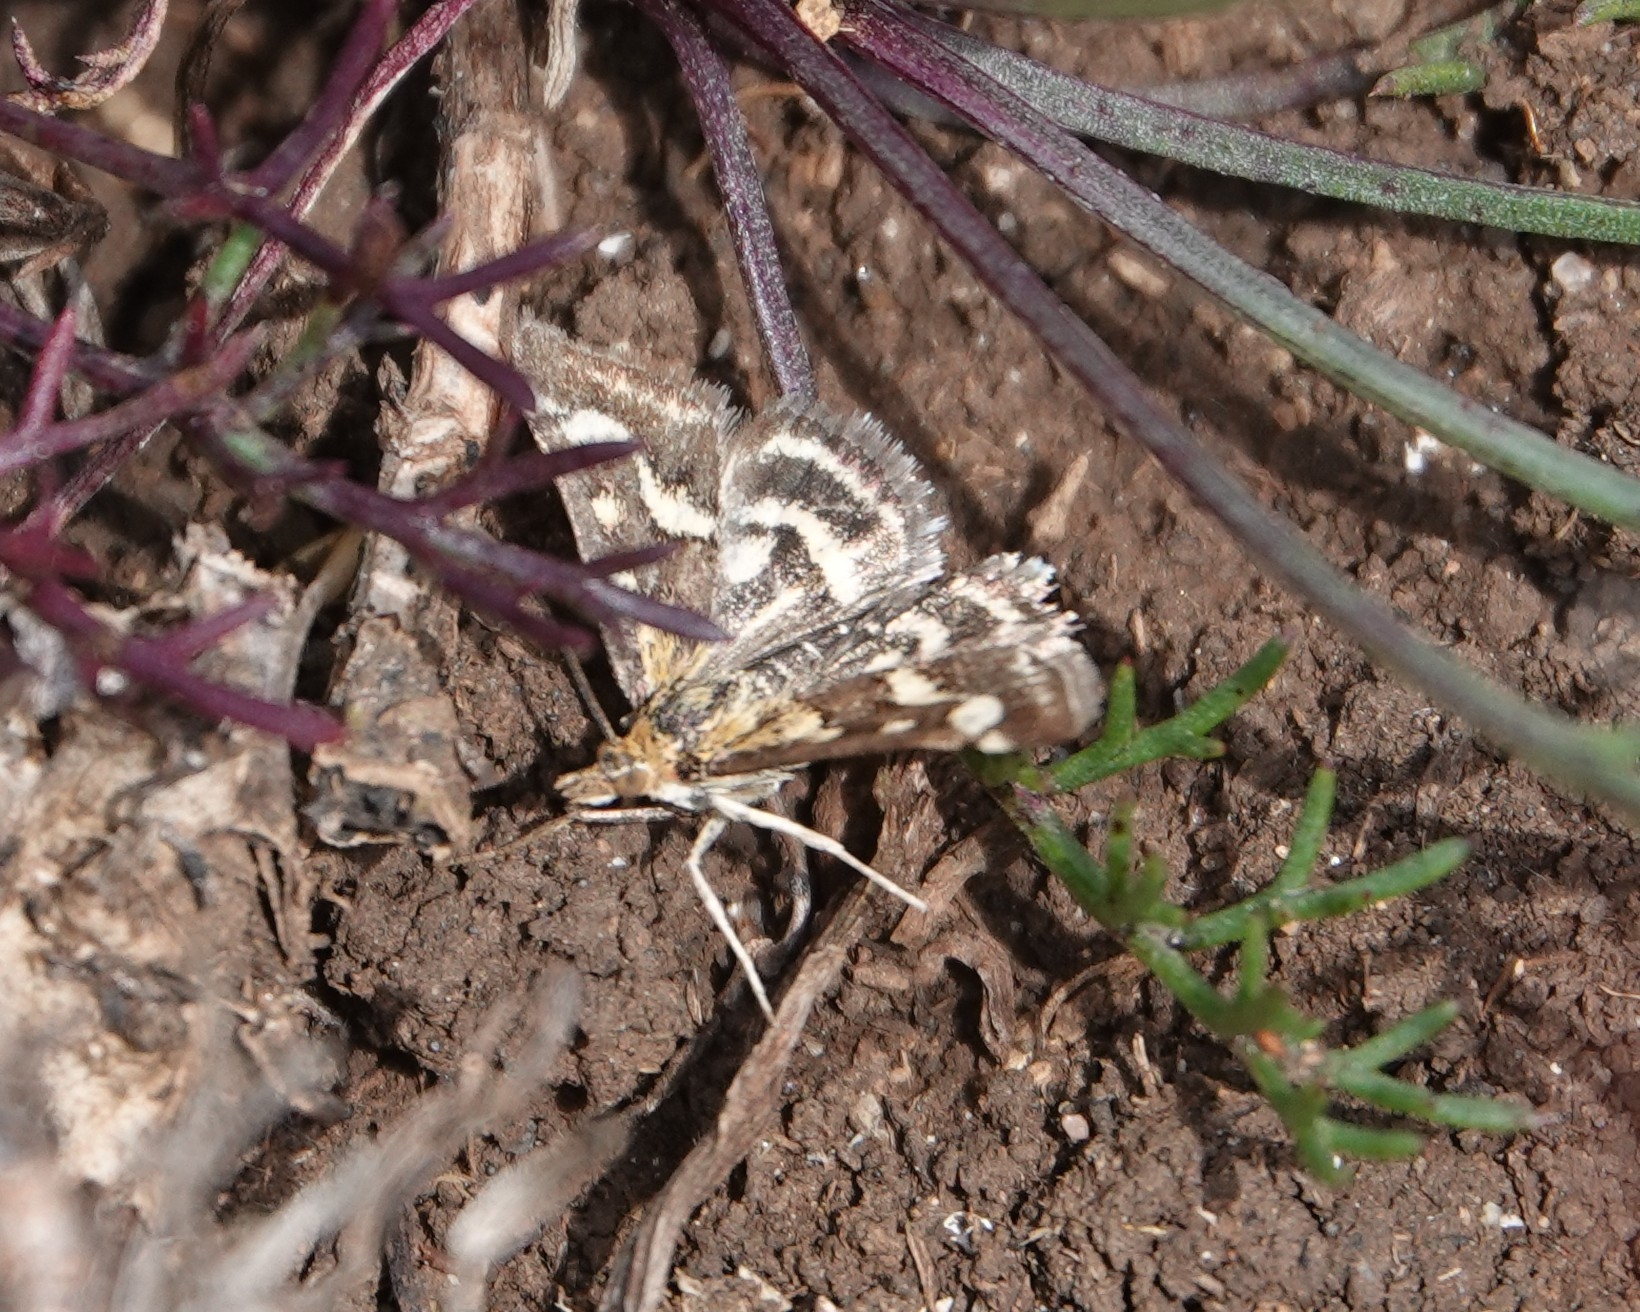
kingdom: Animalia
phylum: Arthropoda
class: Insecta
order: Lepidoptera
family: Crambidae
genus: Pyrausta
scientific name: Pyrausta purpuralis
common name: Common purple & gold
